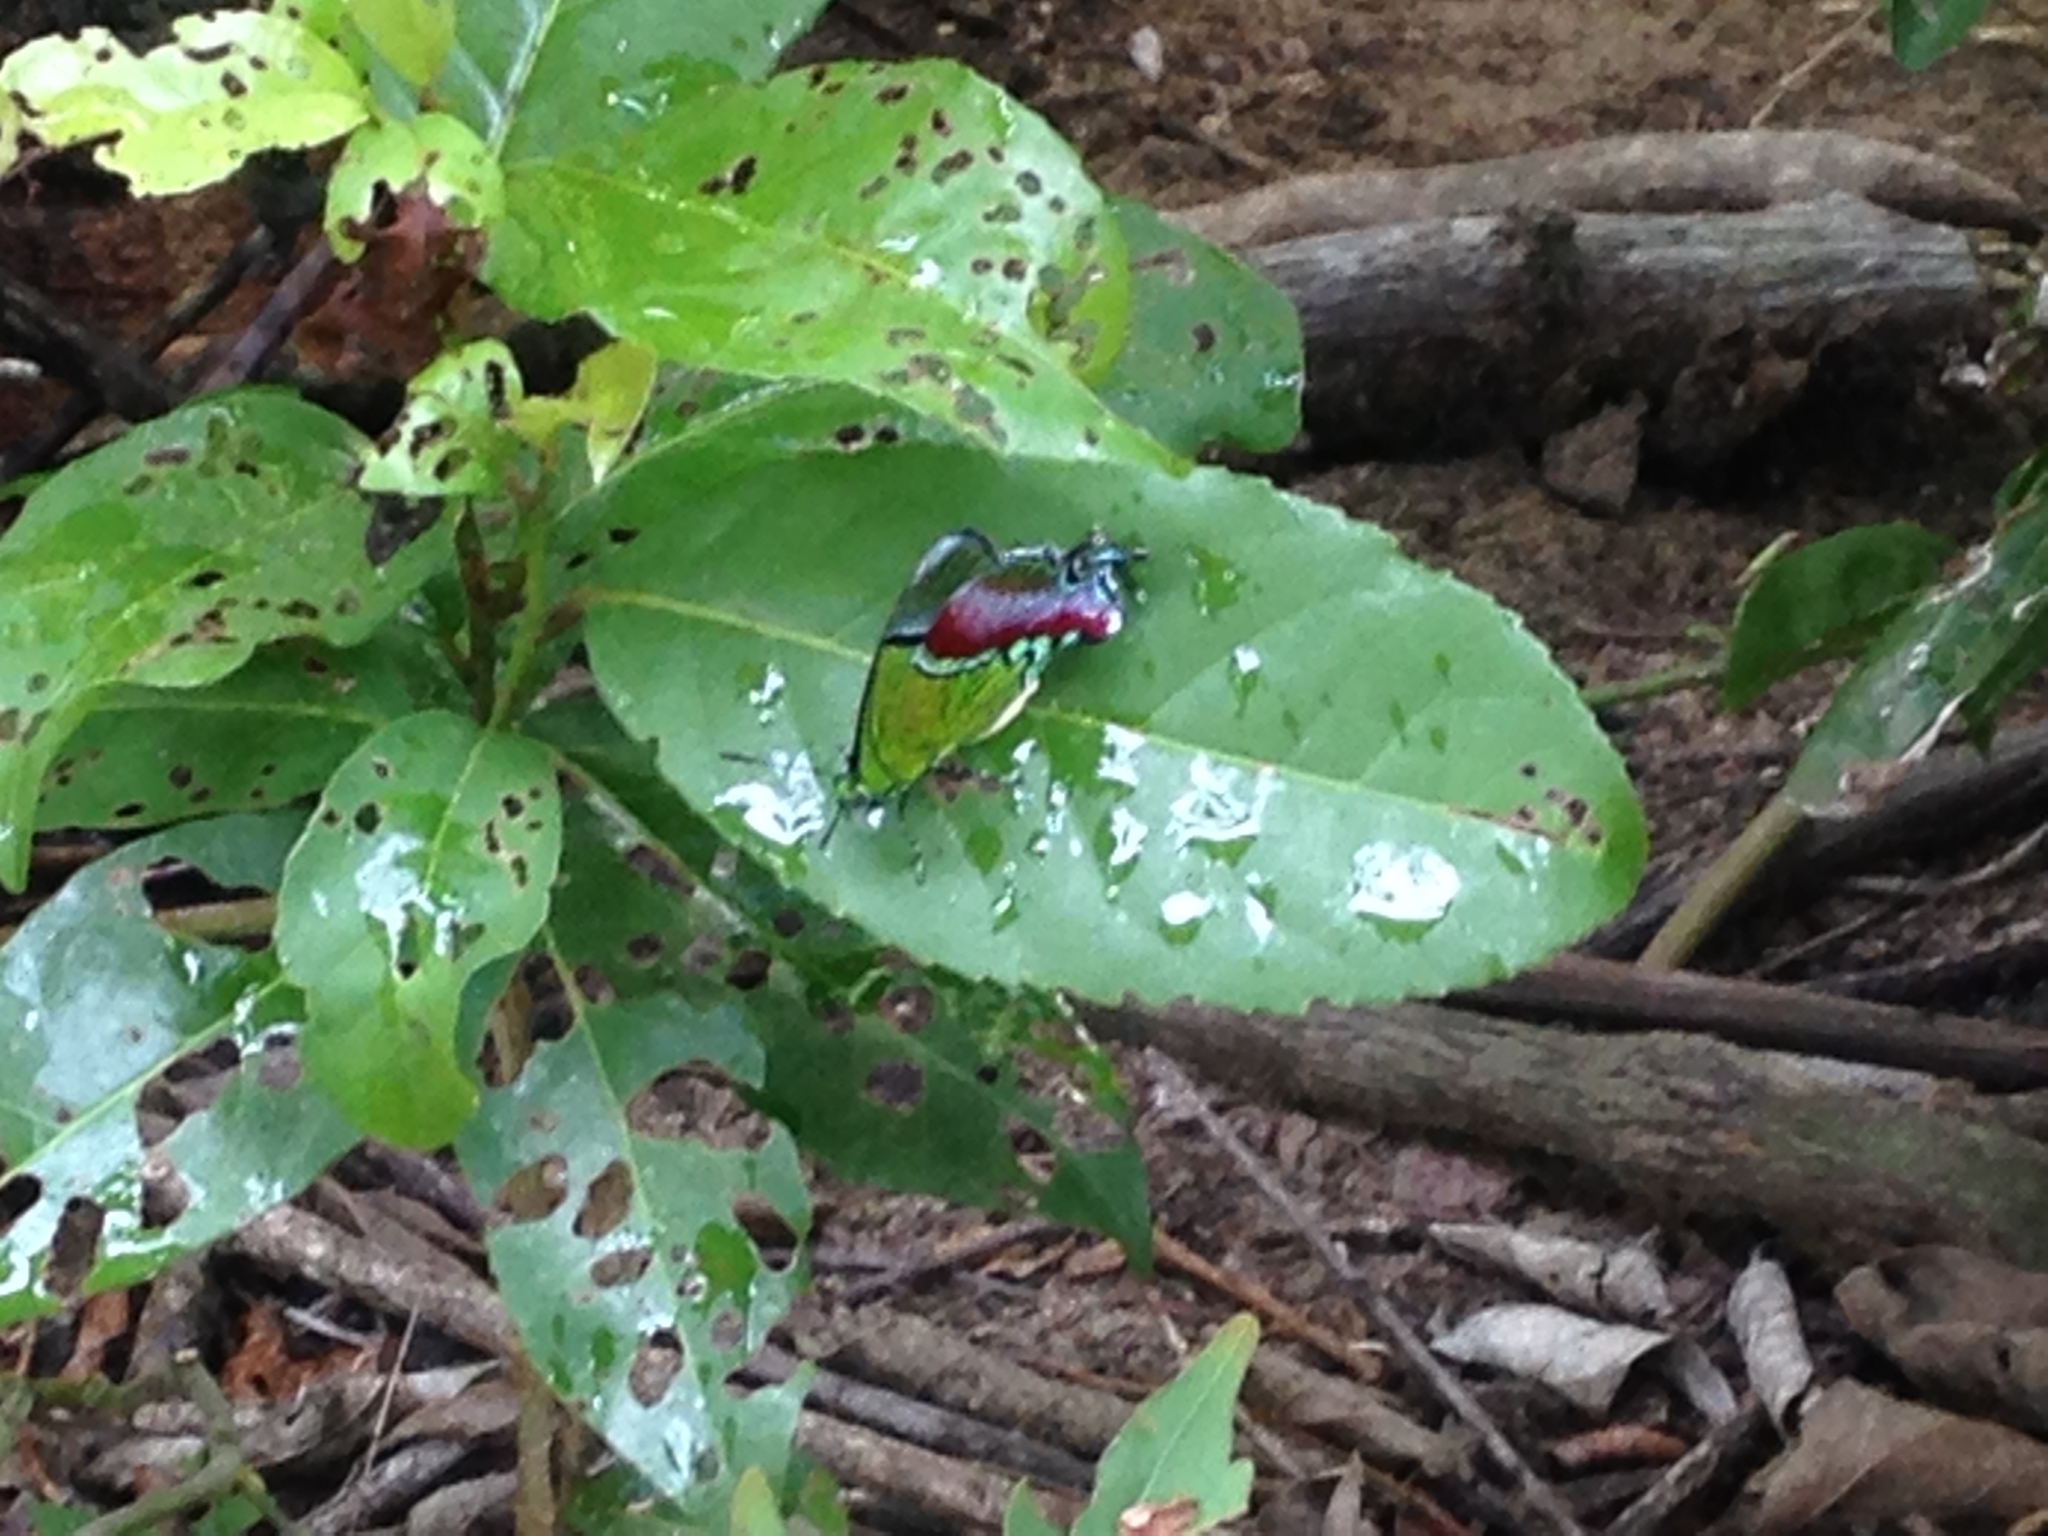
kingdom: Animalia
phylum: Arthropoda
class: Insecta
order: Lepidoptera
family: Lycaenidae
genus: Evenus
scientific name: Evenus regalis
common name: Regal hairstreak
